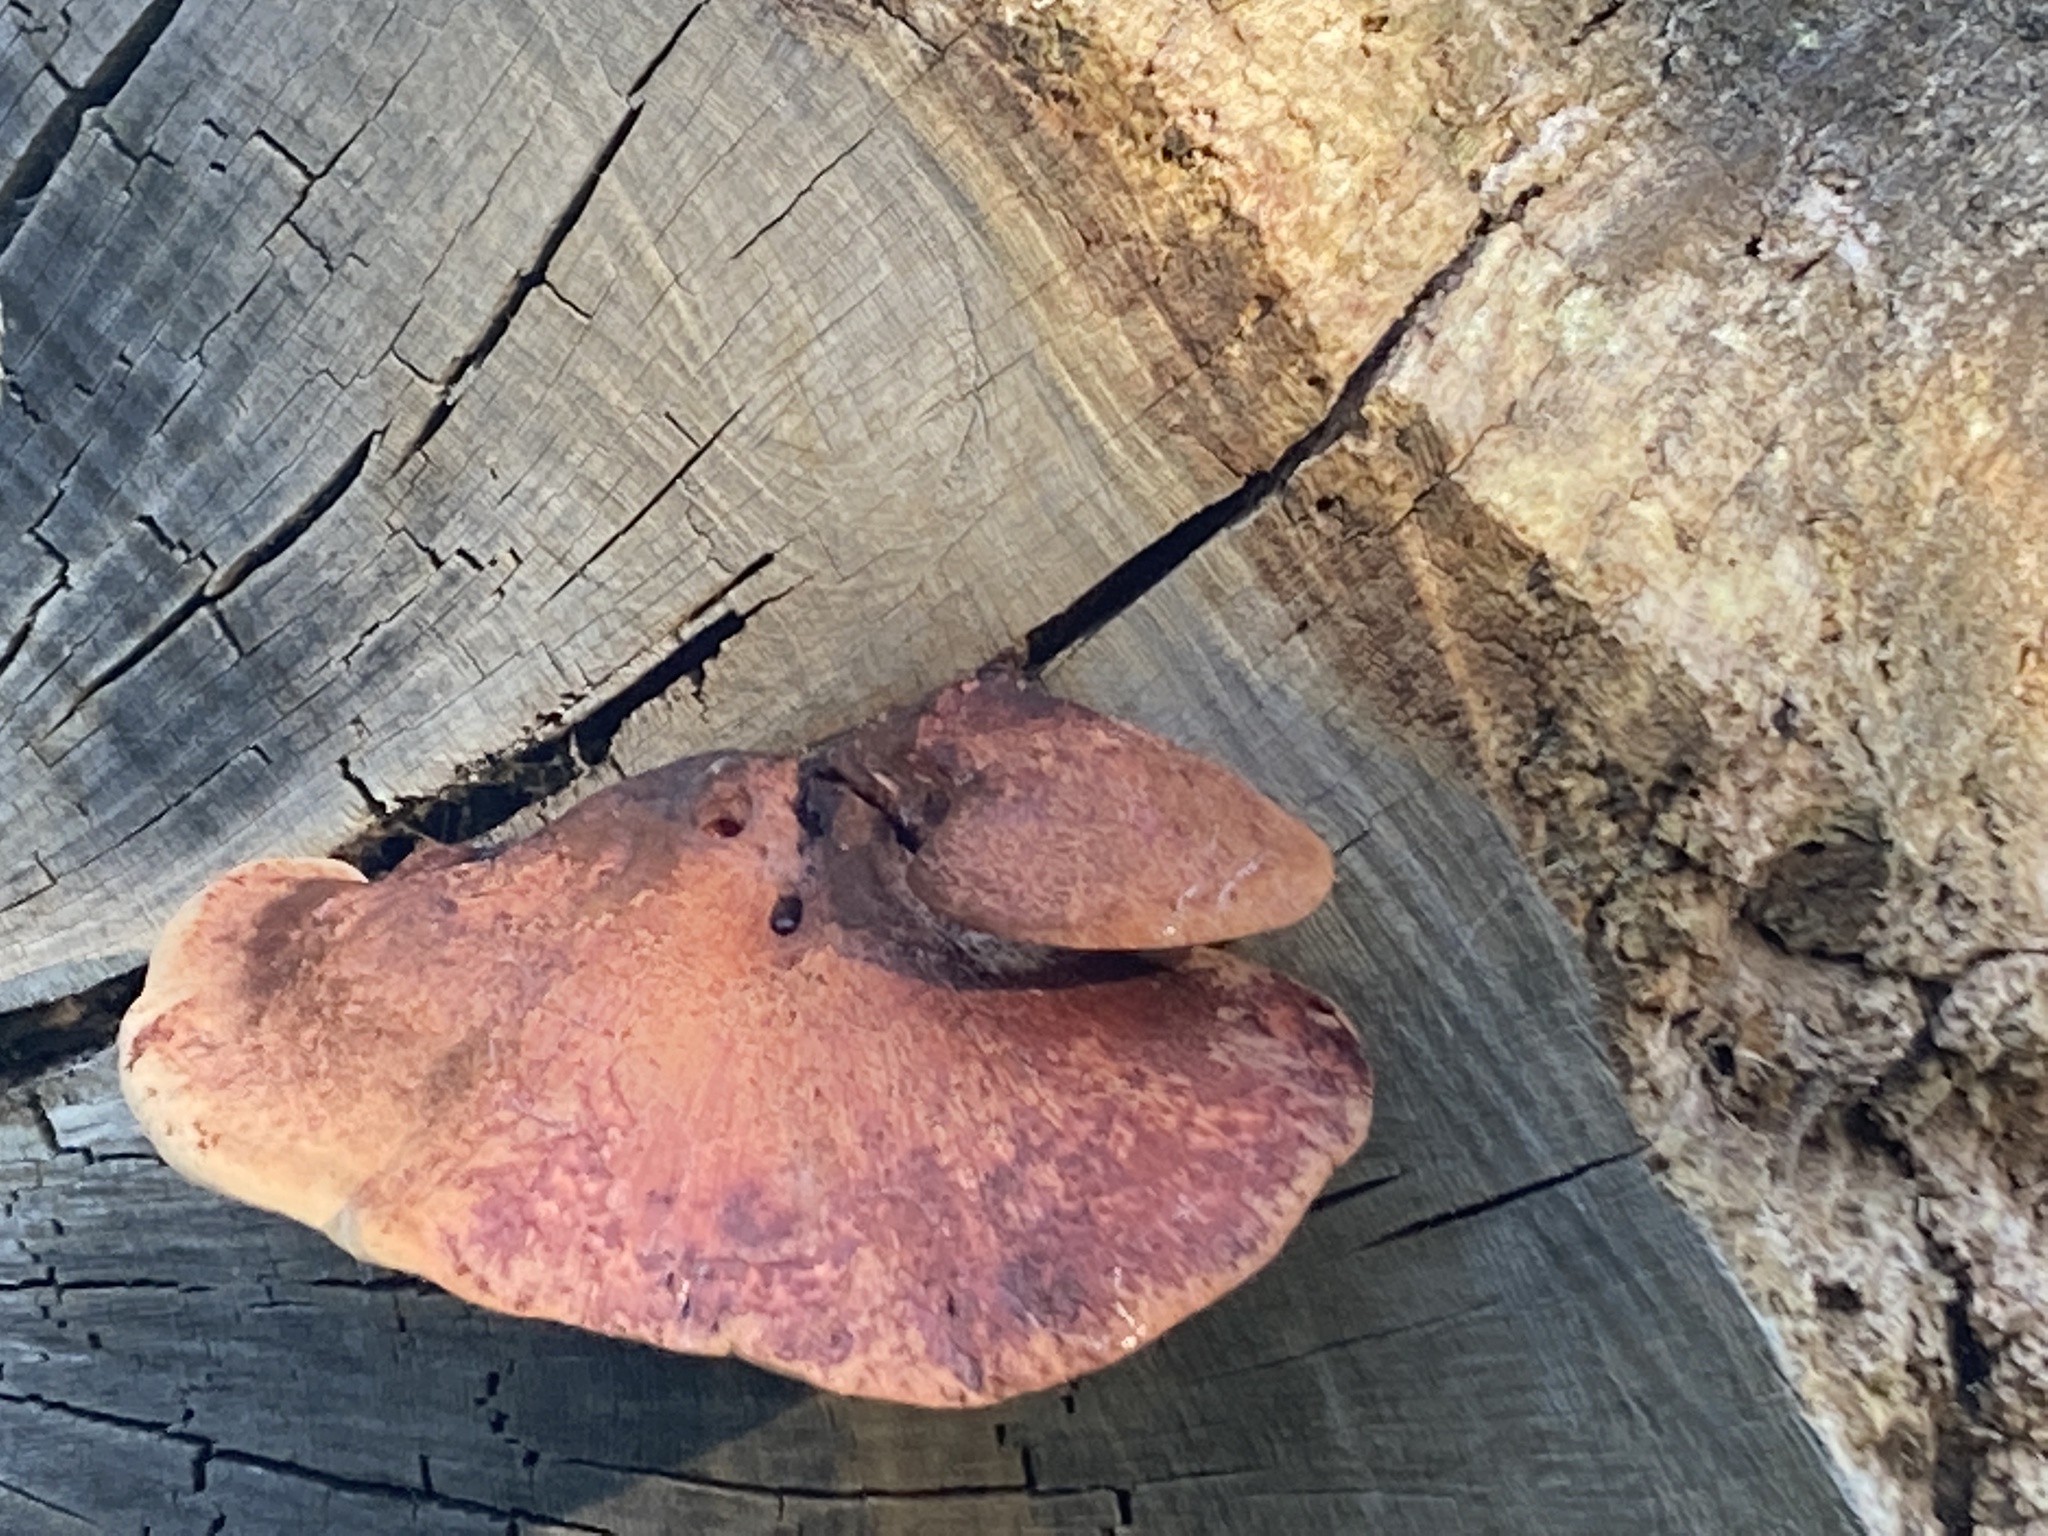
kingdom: Fungi
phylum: Basidiomycota
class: Agaricomycetes
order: Agaricales
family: Fistulinaceae
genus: Fistulina
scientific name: Fistulina hepatica
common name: Beef-steak fungus
